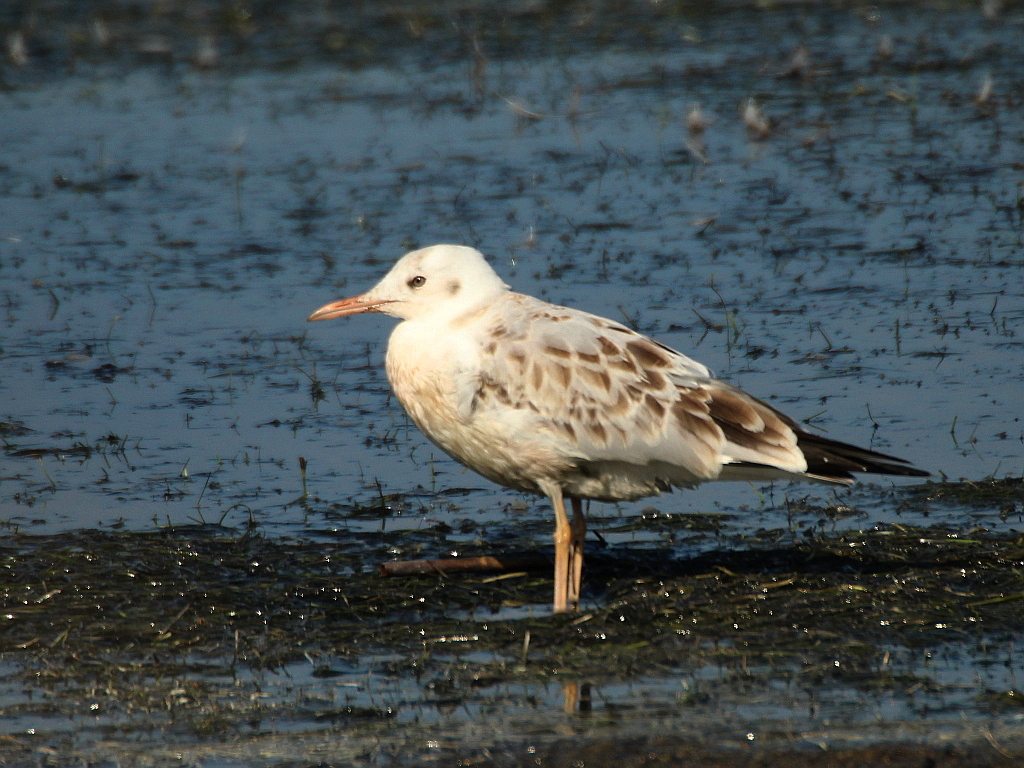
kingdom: Animalia
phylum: Chordata
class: Aves
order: Charadriiformes
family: Laridae
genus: Chroicocephalus
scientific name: Chroicocephalus genei
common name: Slender-billed gull
